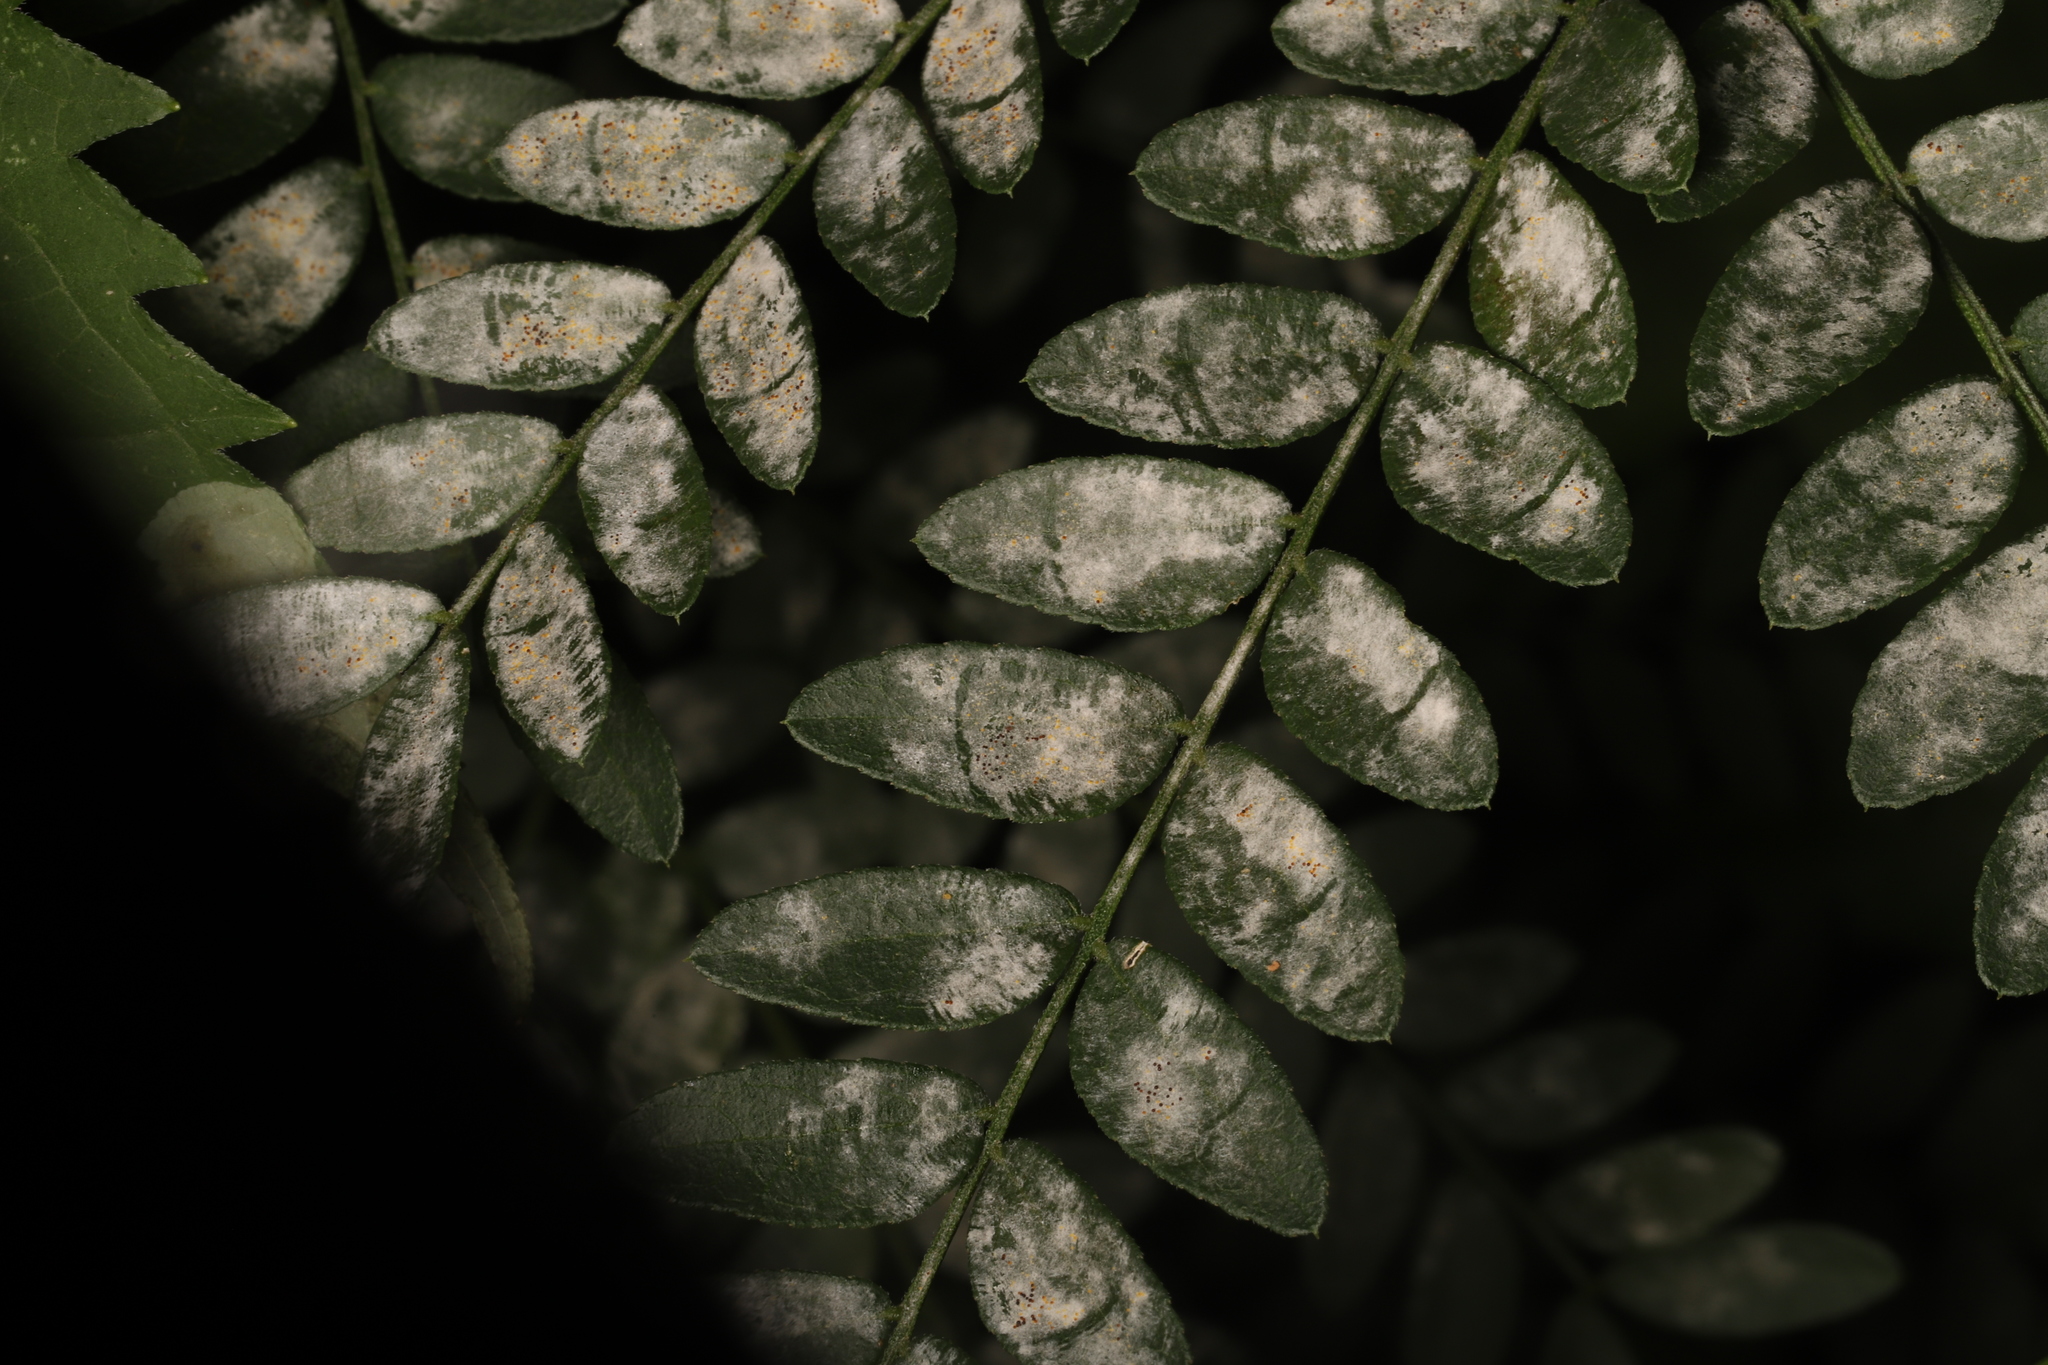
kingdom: Fungi
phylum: Ascomycota
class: Leotiomycetes
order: Helotiales
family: Erysiphaceae
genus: Erysiphe
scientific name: Erysiphe ravenelii
